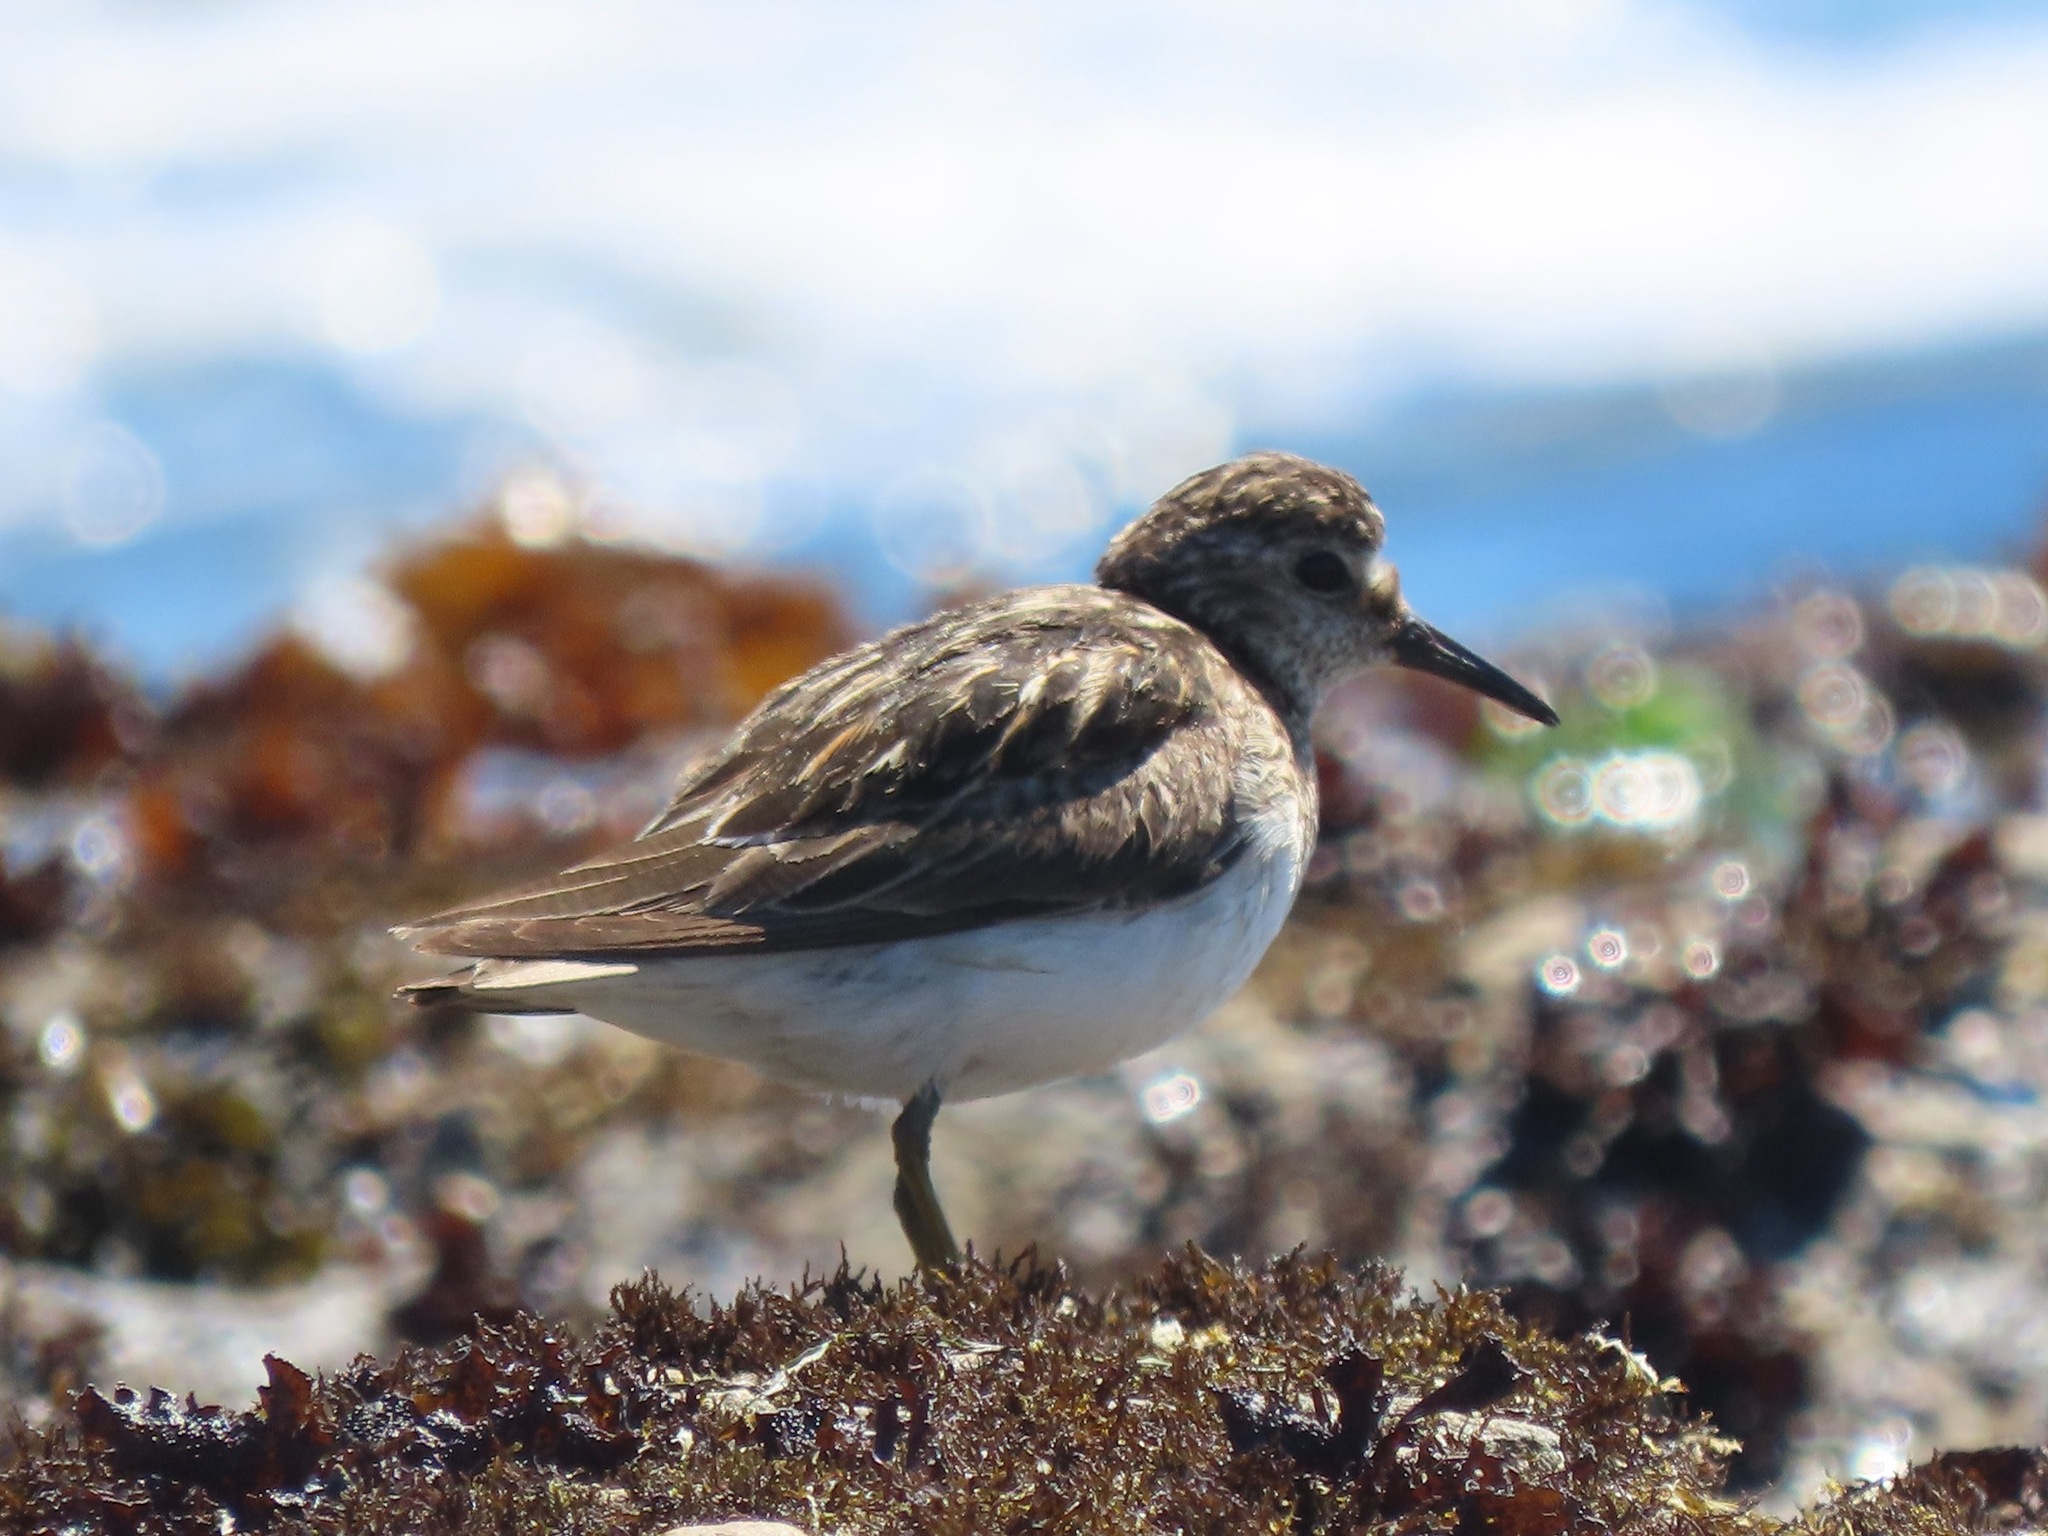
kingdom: Animalia
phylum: Chordata
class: Aves
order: Charadriiformes
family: Scolopacidae
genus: Calidris
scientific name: Calidris minutilla
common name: Least sandpiper
